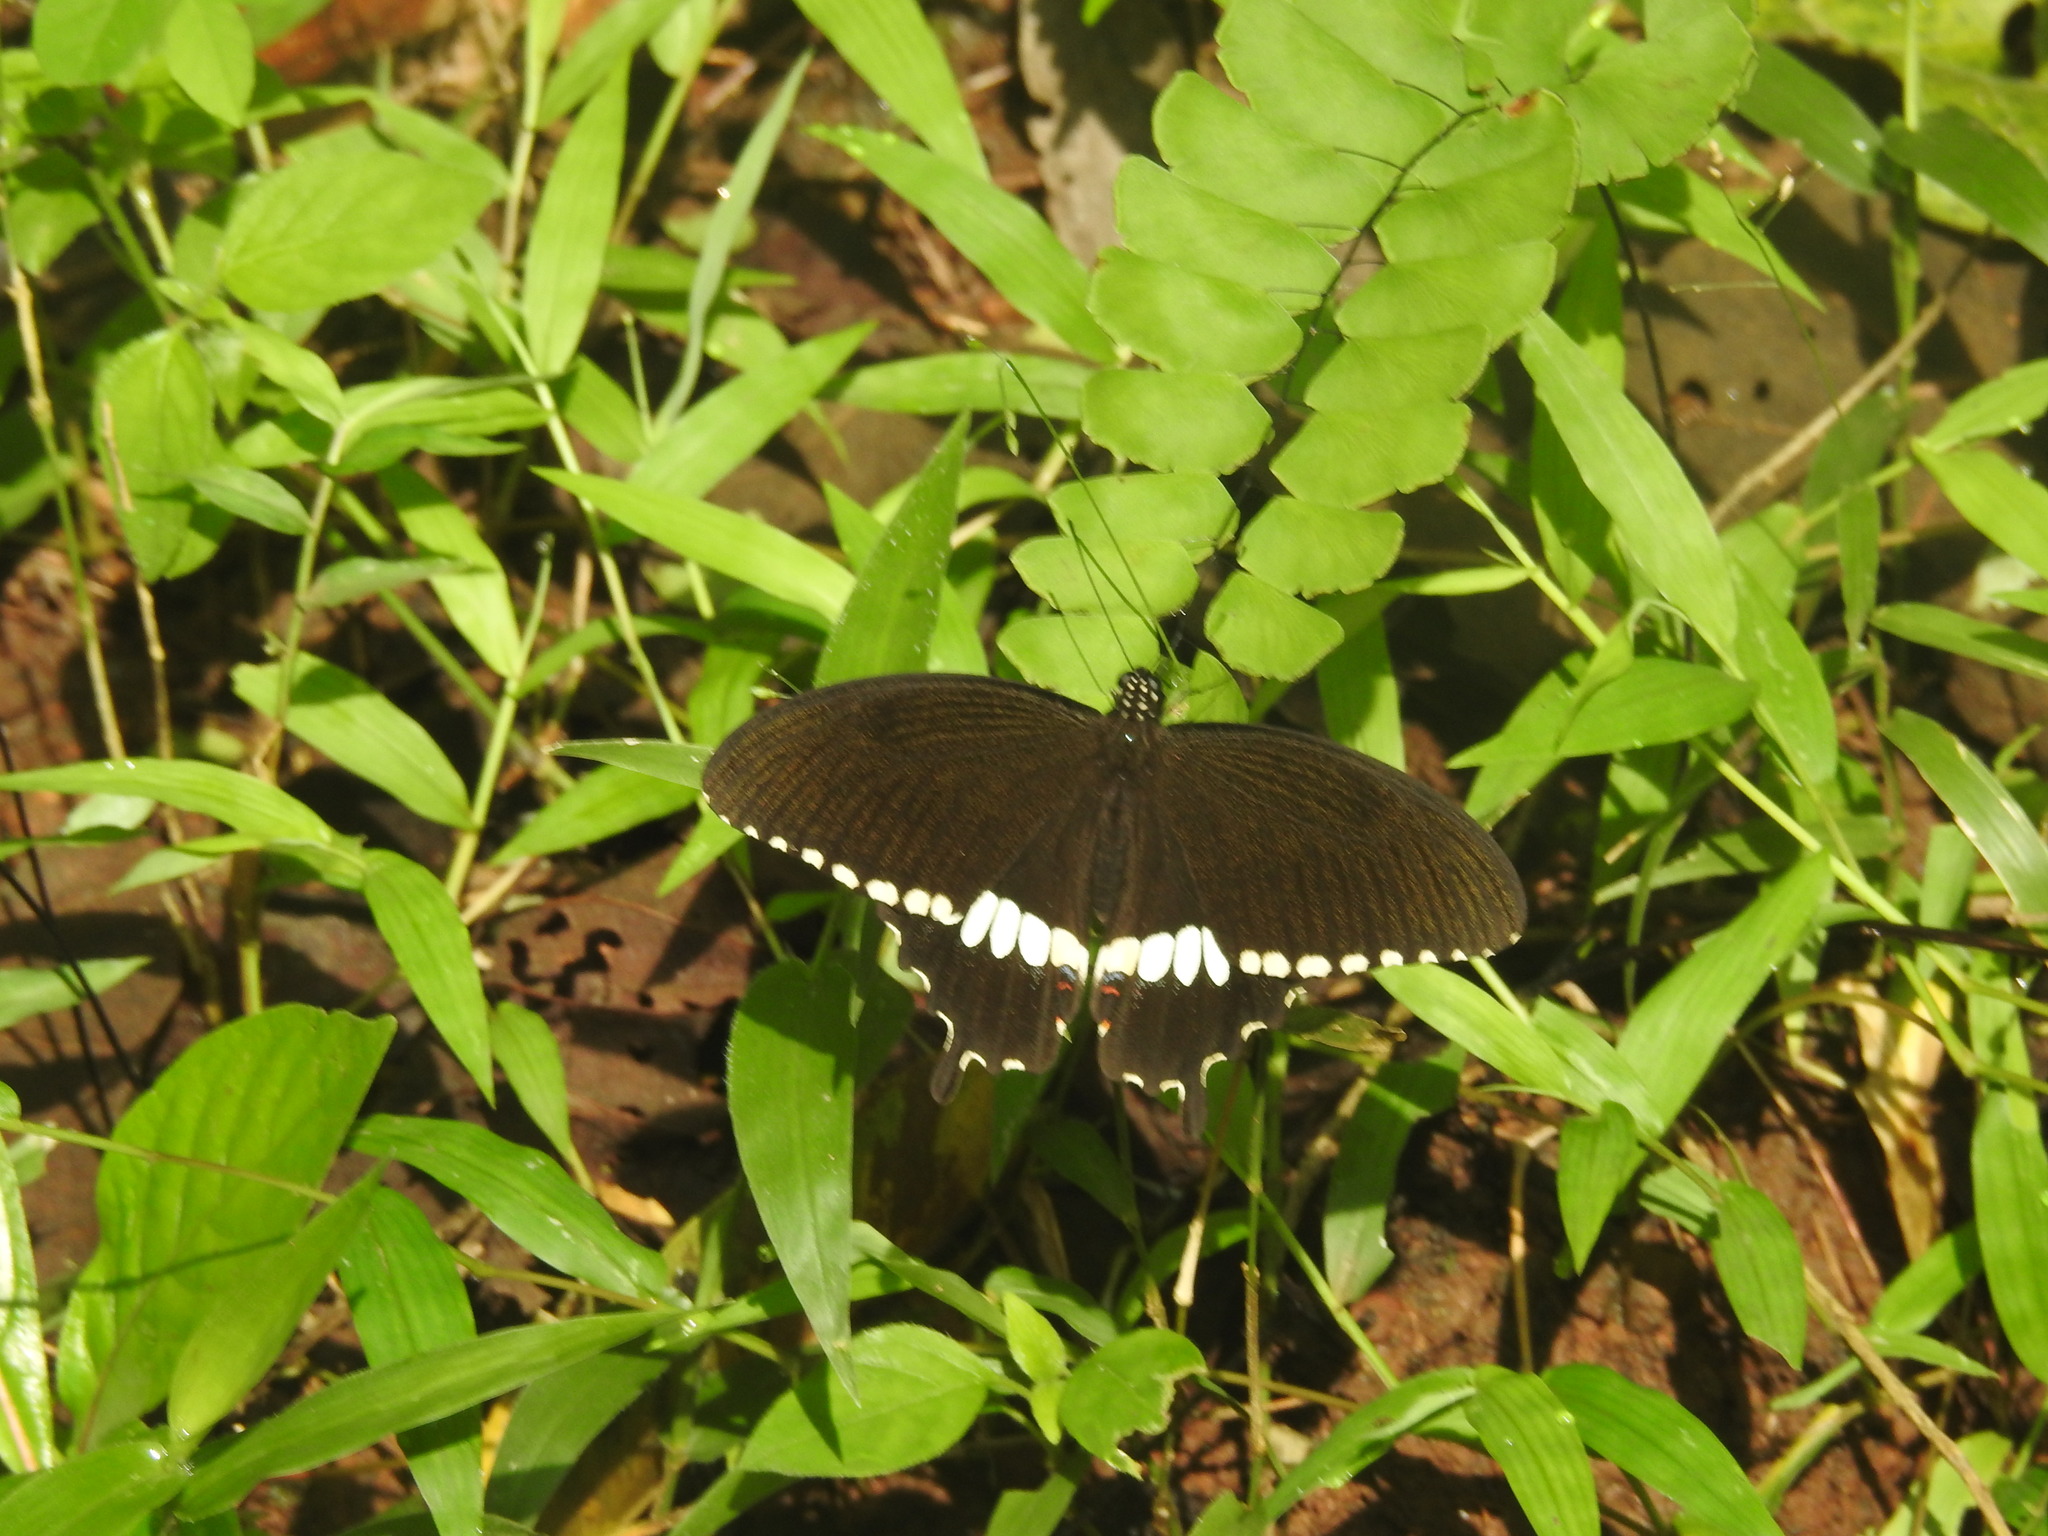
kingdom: Animalia
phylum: Arthropoda
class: Insecta
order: Lepidoptera
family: Papilionidae
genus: Papilio
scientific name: Papilio polytes
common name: Common mormon
